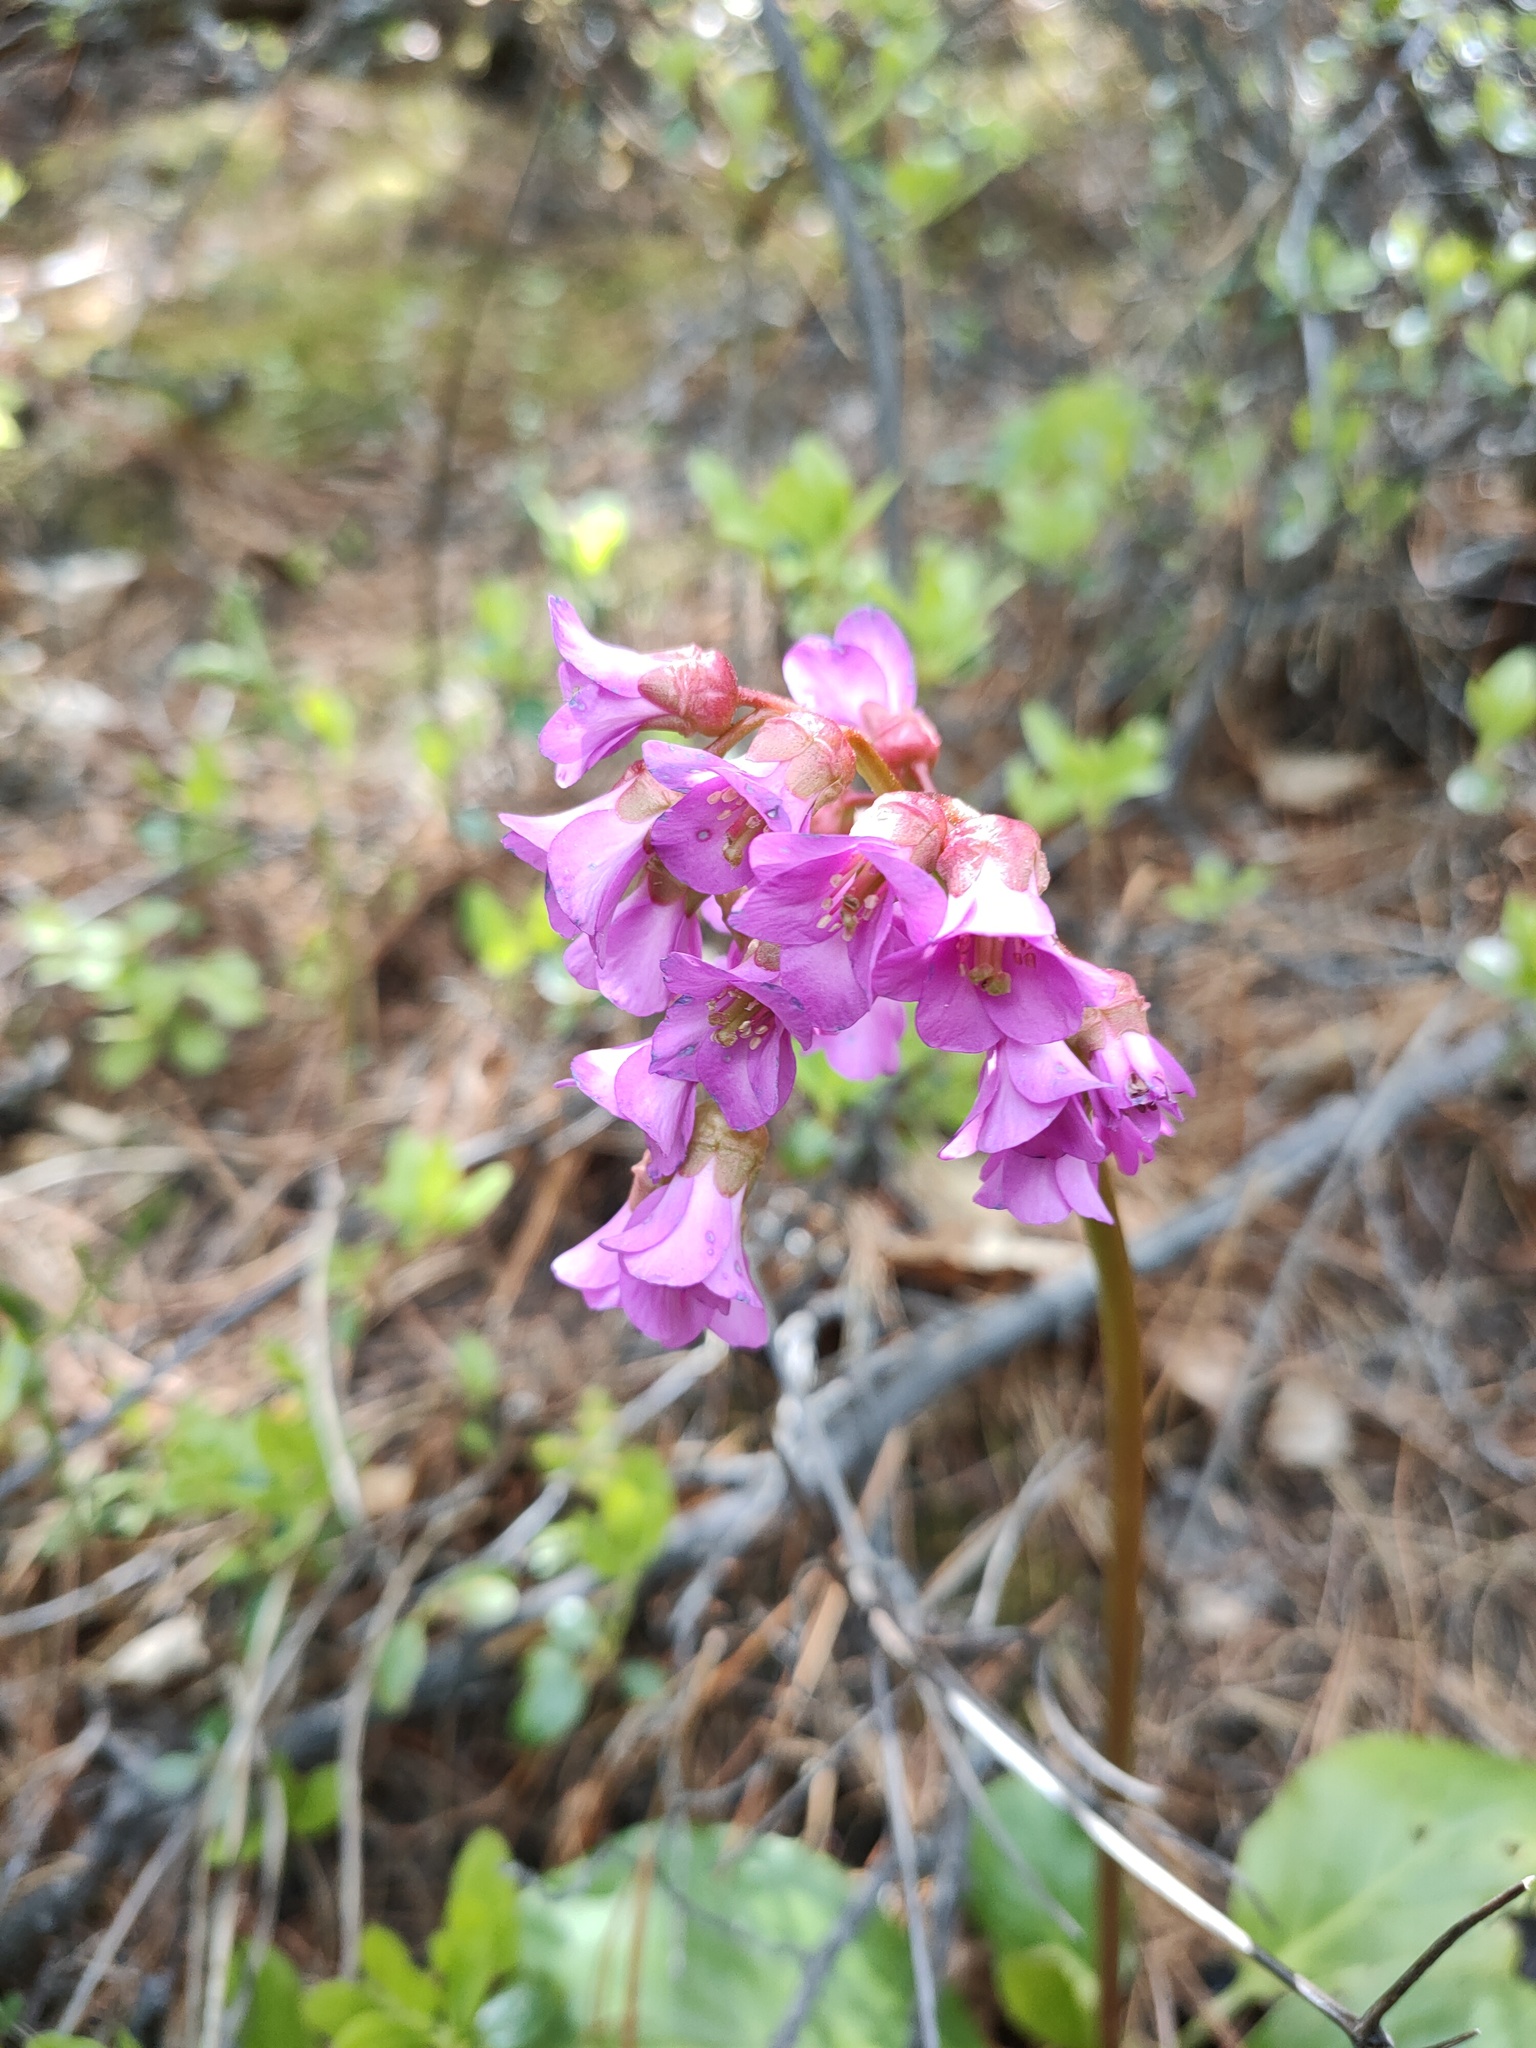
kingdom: Plantae
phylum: Tracheophyta
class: Magnoliopsida
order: Saxifragales
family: Saxifragaceae
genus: Bergenia
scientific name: Bergenia crassifolia
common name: Elephant-ears
